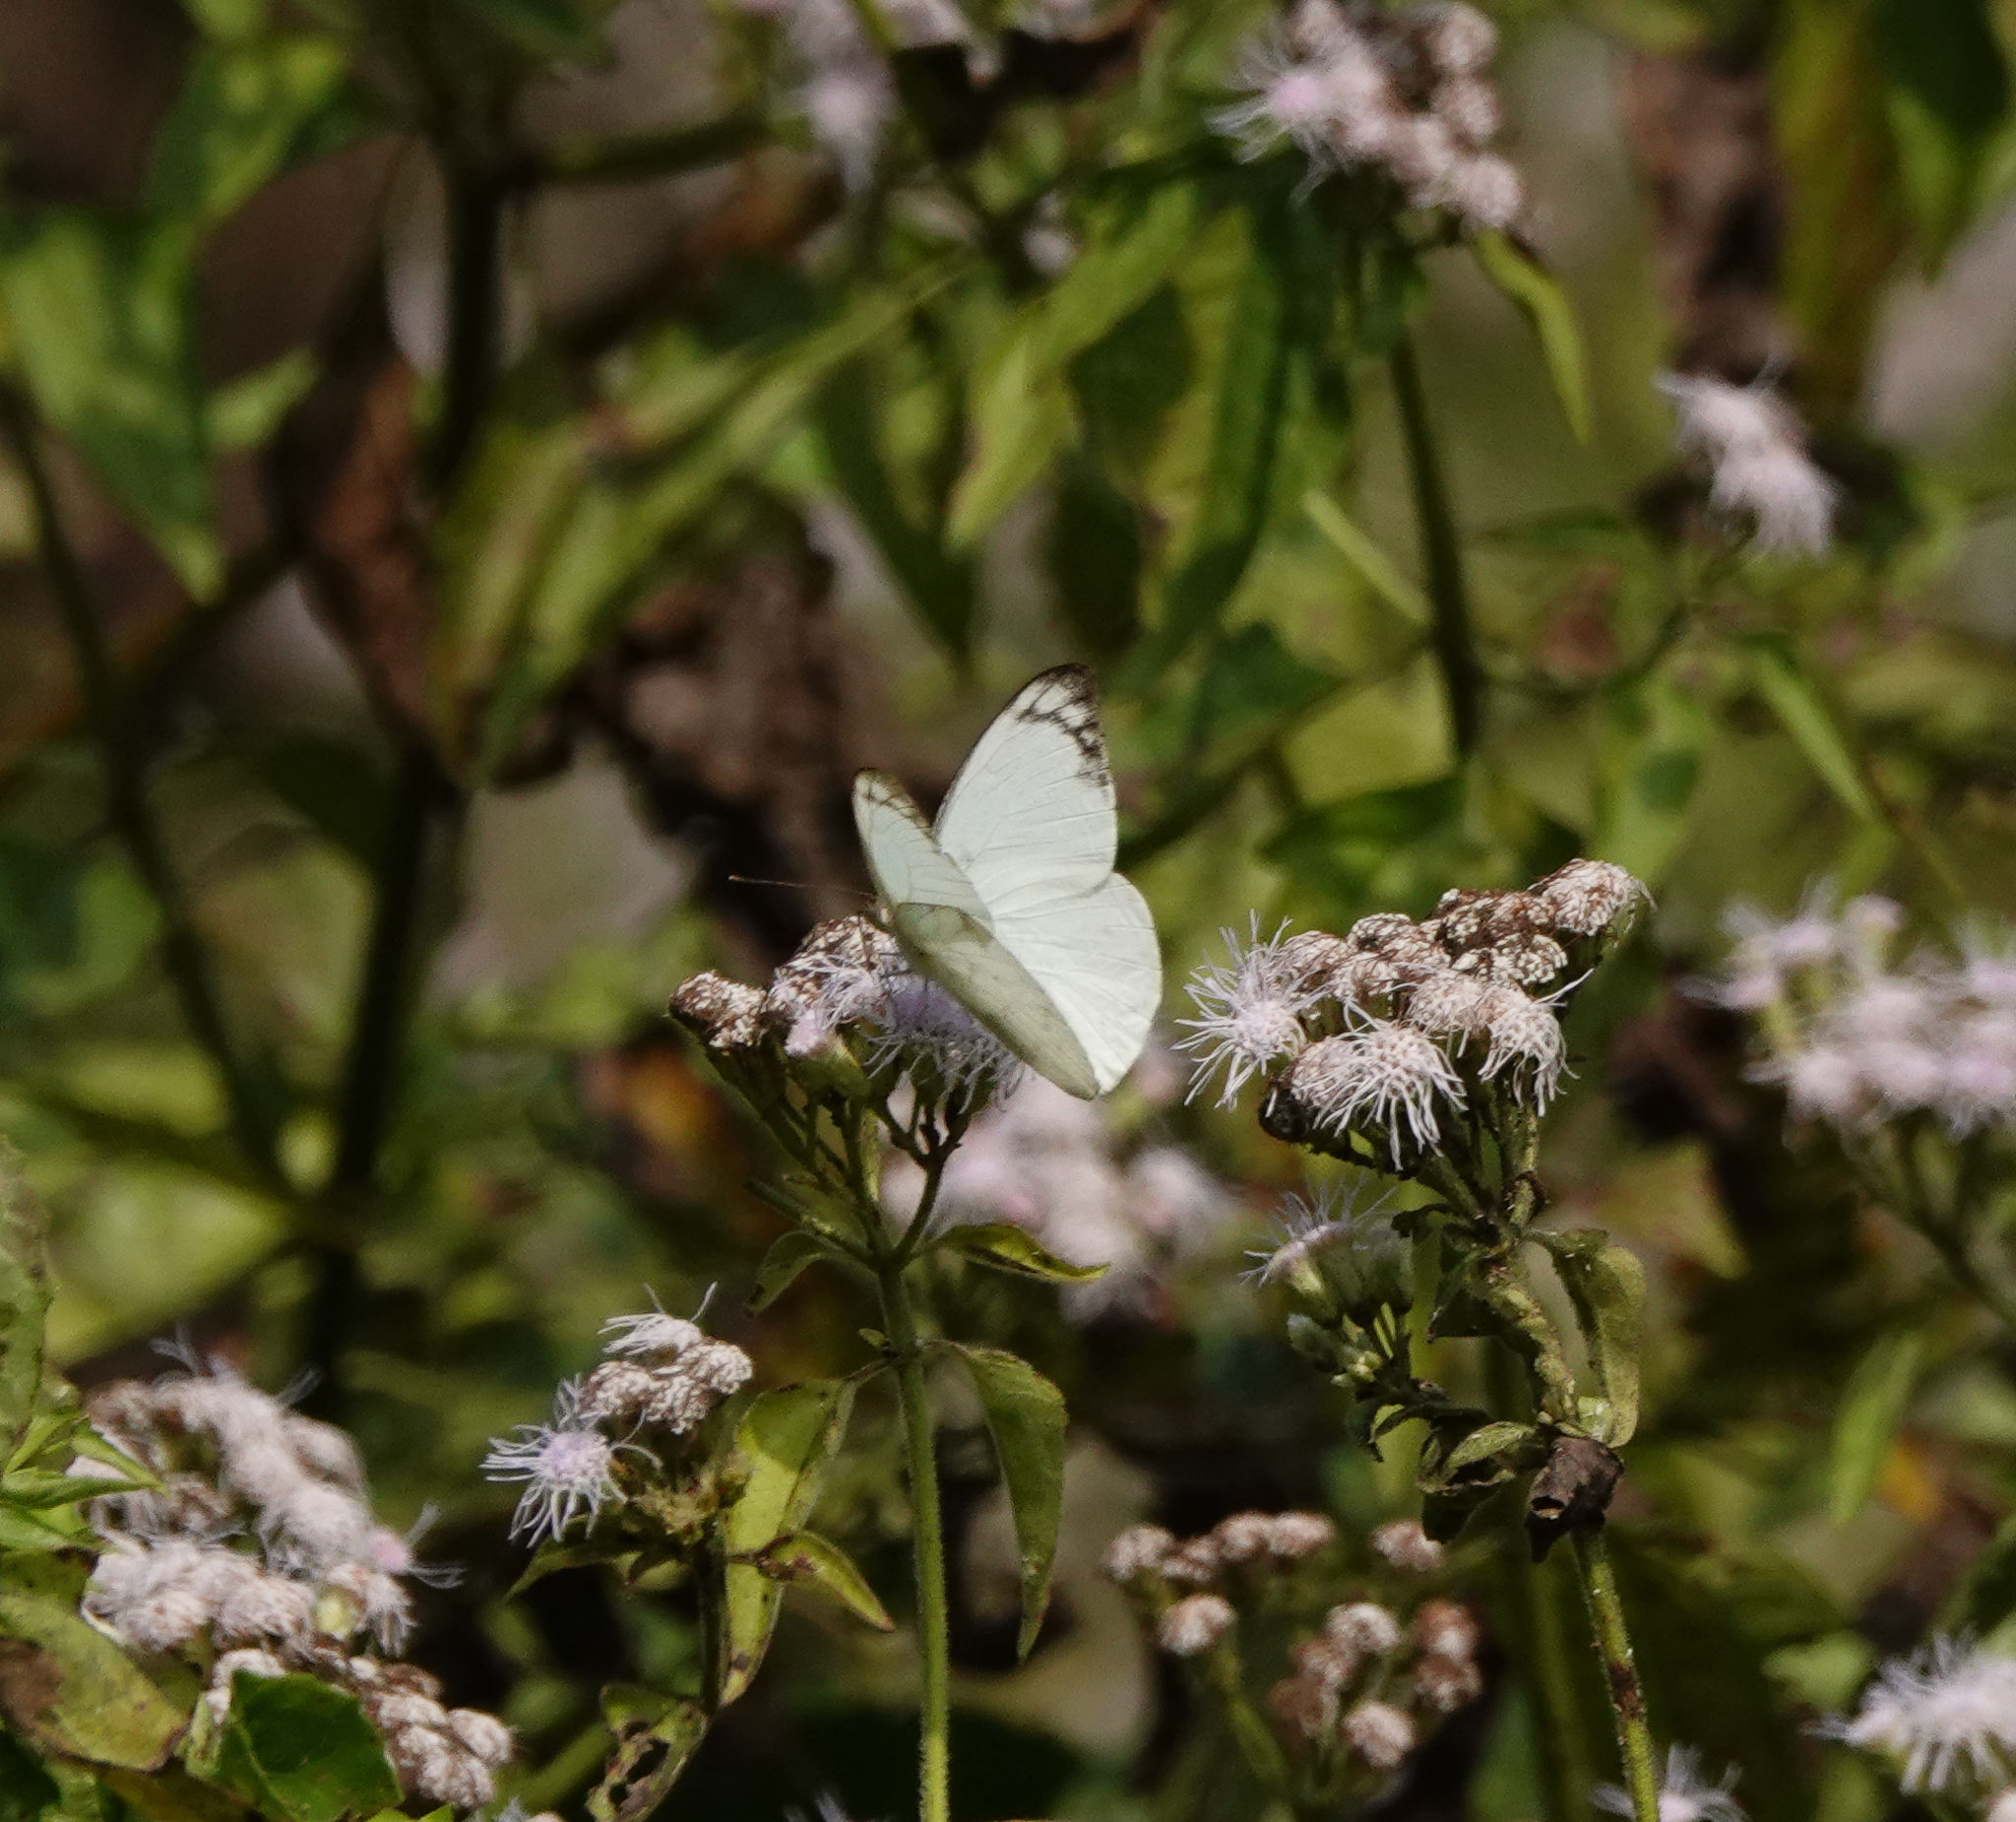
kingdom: Animalia
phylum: Arthropoda
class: Insecta
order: Lepidoptera
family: Pieridae
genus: Appias
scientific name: Appias albina
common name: Common albatross
